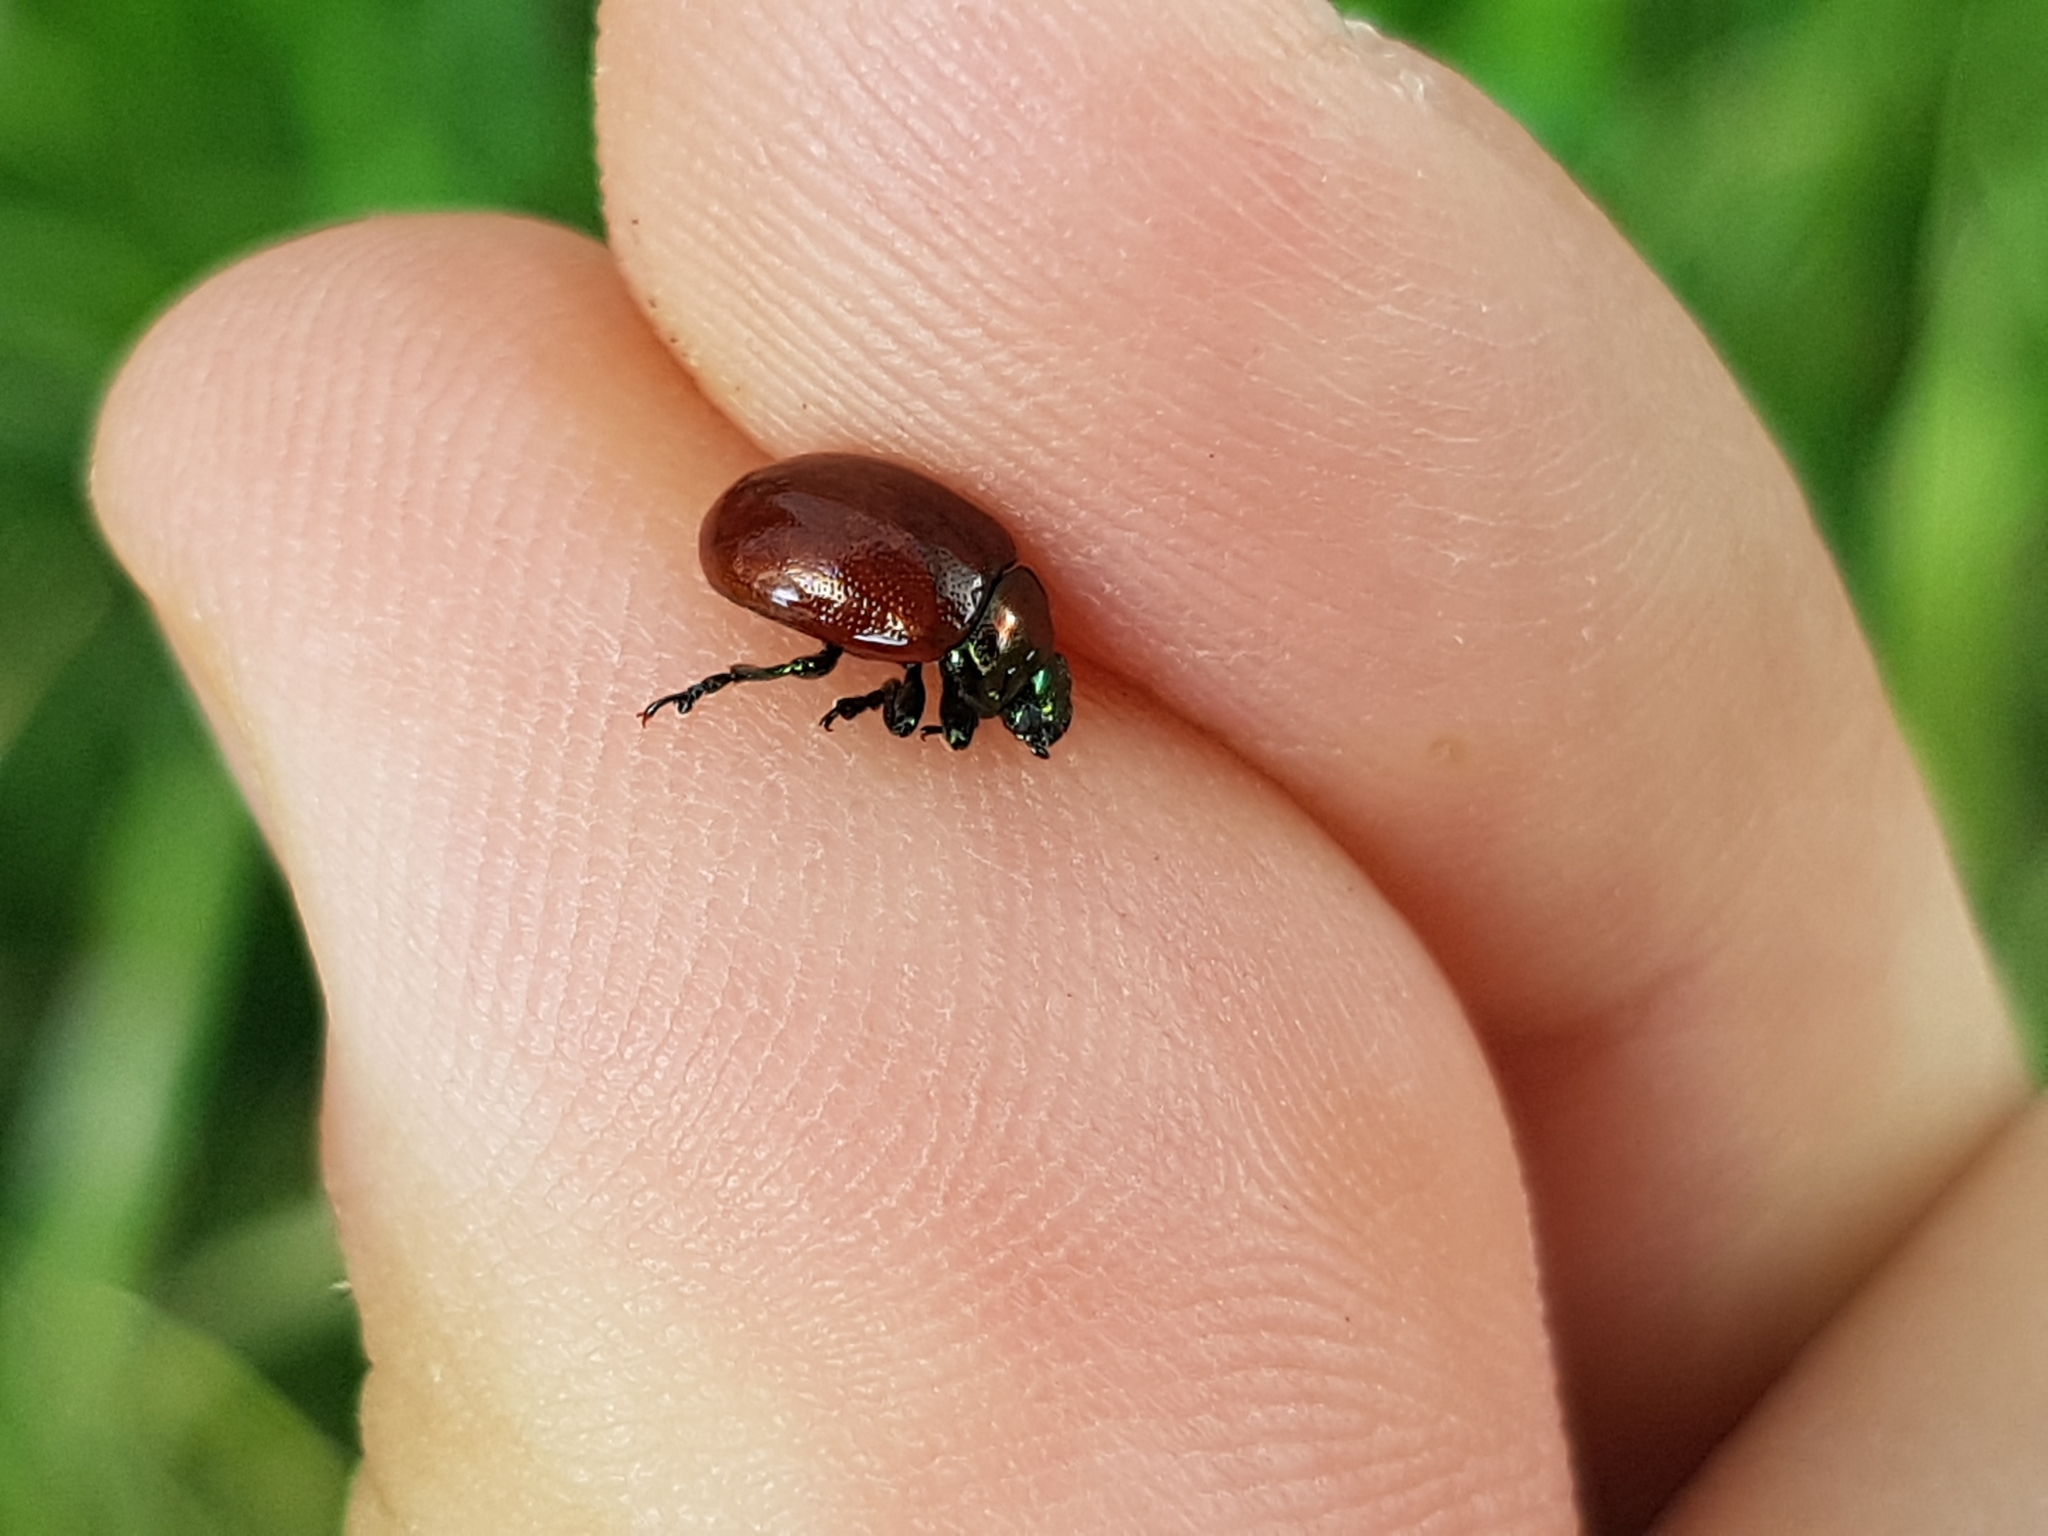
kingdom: Animalia
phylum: Arthropoda
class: Insecta
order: Coleoptera
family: Chrysomelidae
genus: Chrysomela
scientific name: Chrysomela polita
